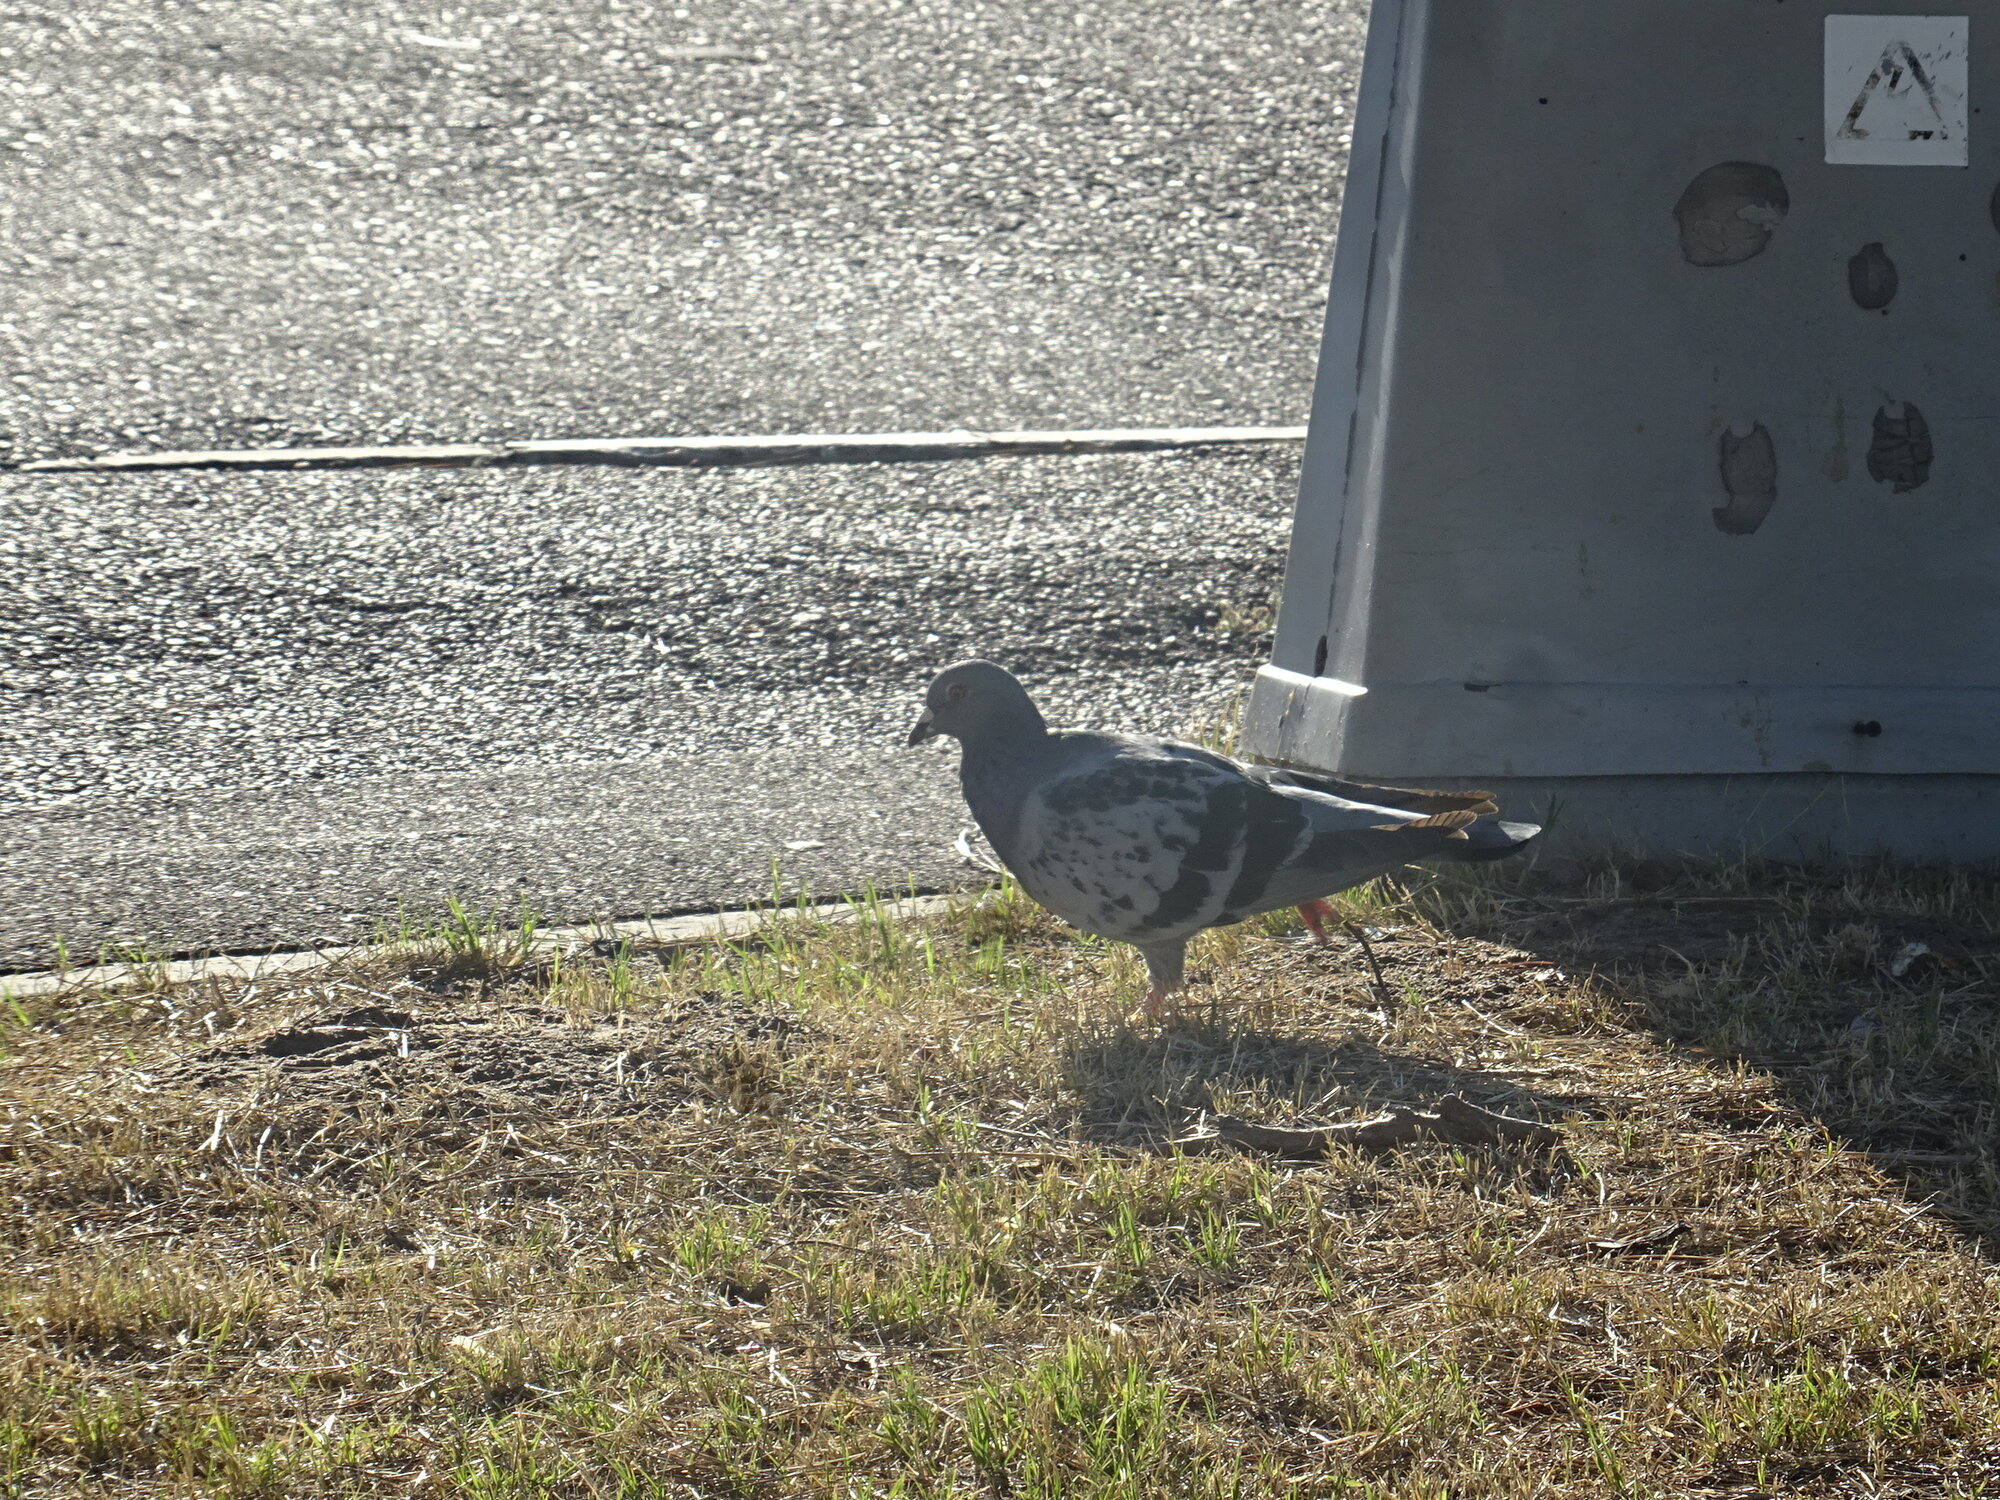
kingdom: Animalia
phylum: Chordata
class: Aves
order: Columbiformes
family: Columbidae
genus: Columba
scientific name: Columba livia
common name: Rock pigeon
